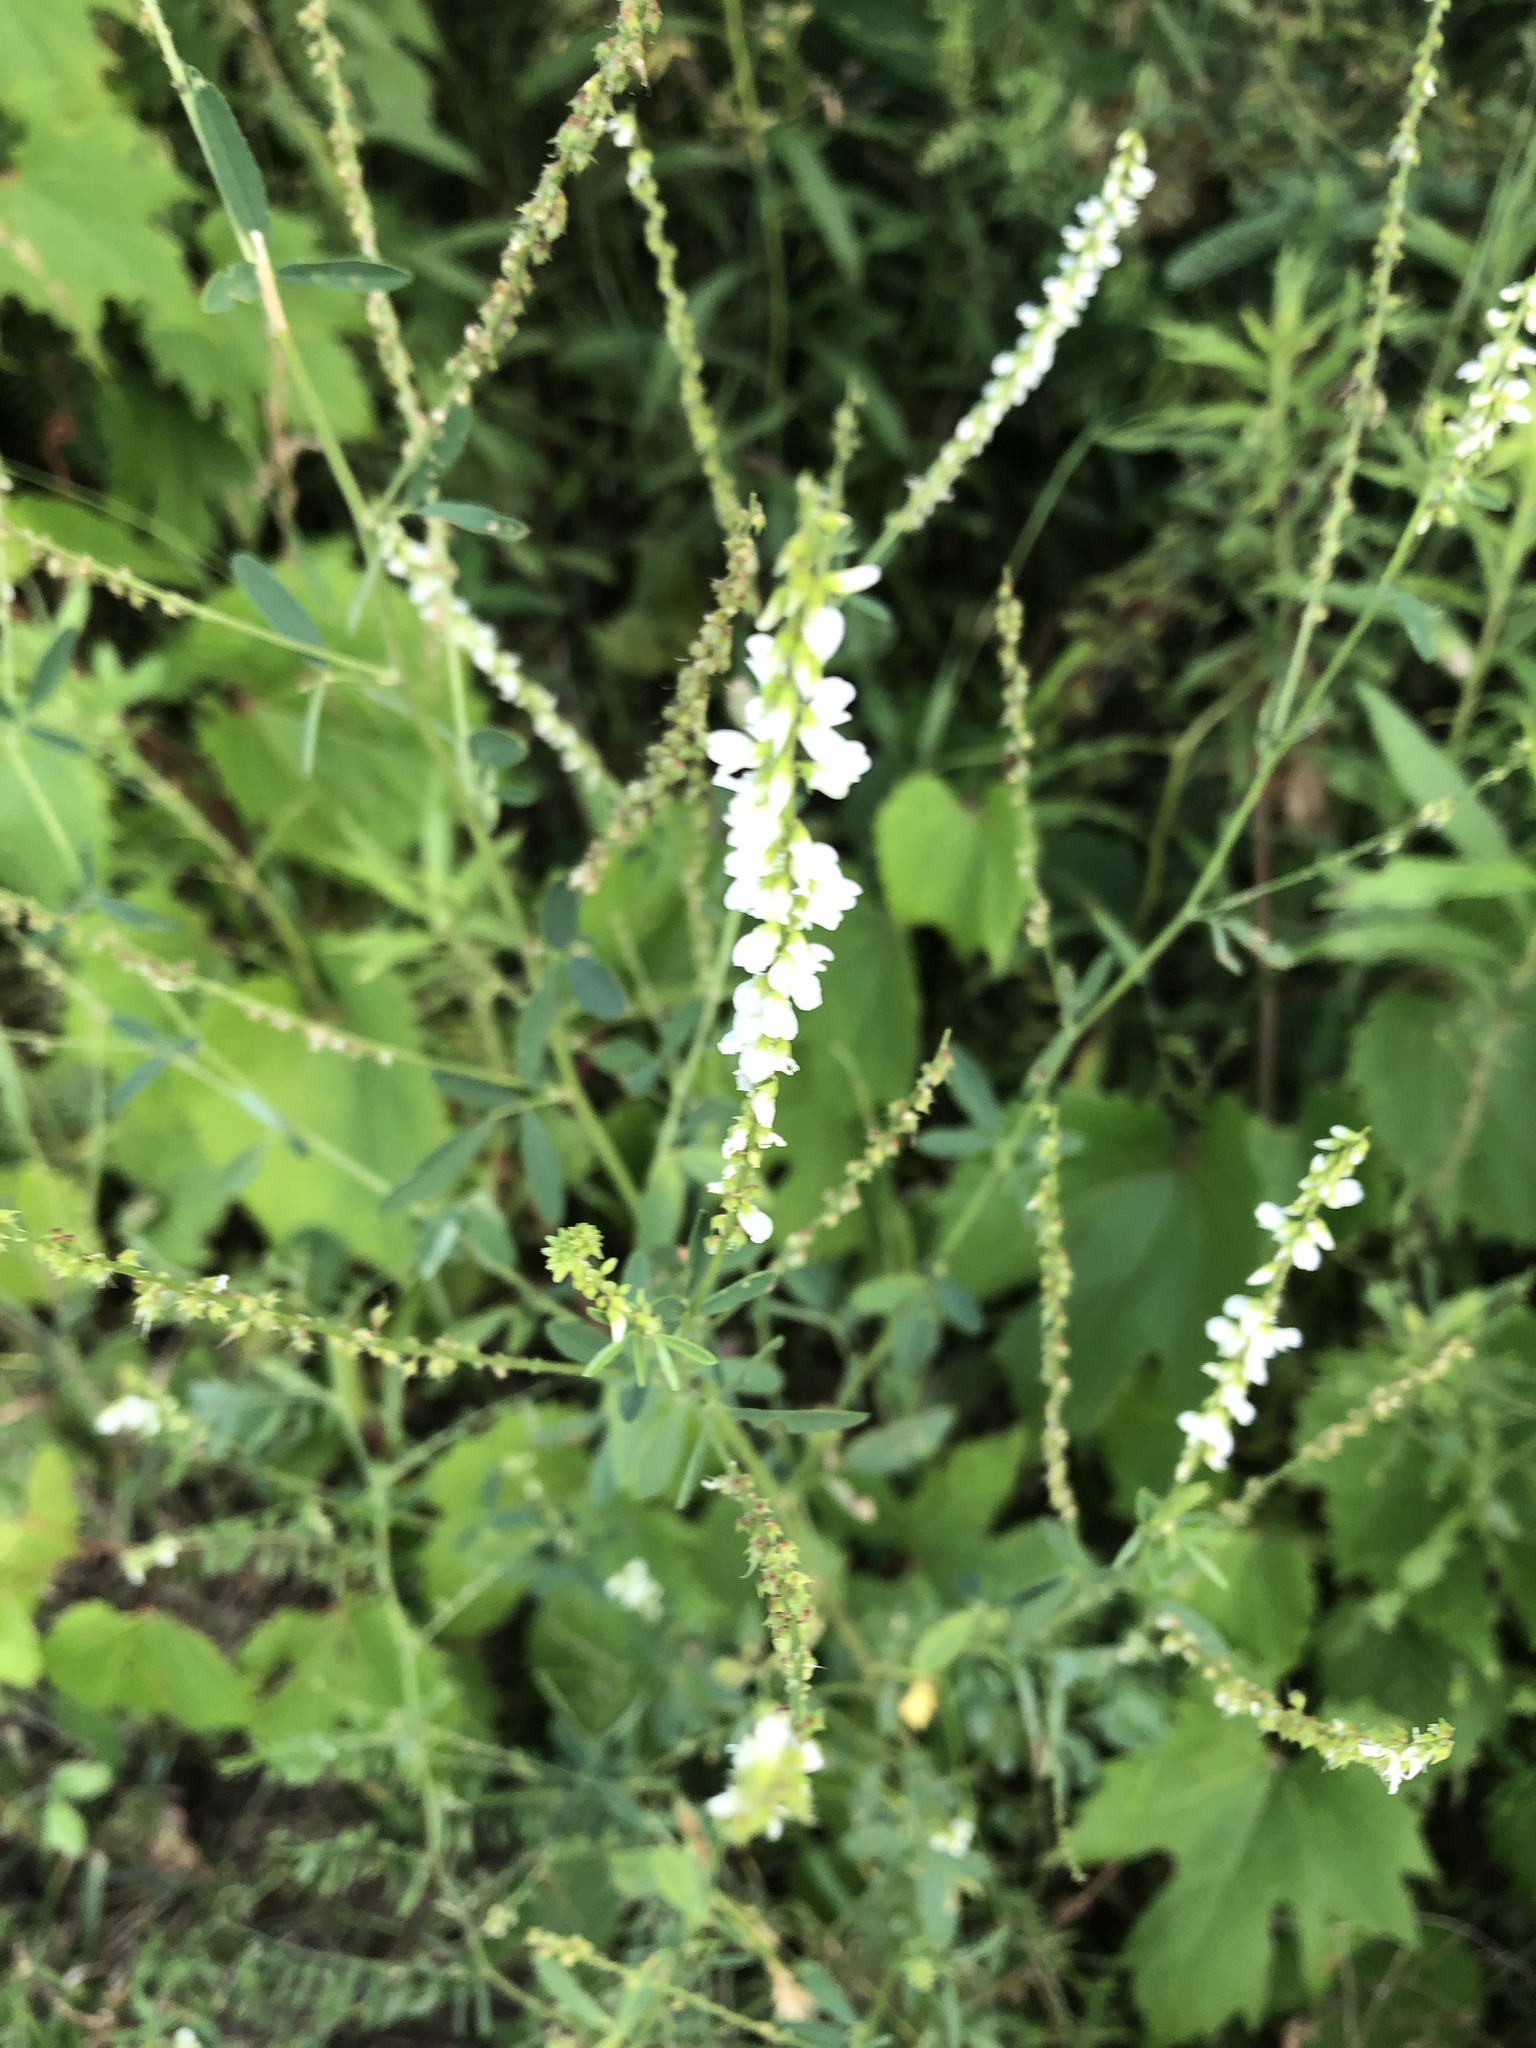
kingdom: Plantae
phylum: Tracheophyta
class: Magnoliopsida
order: Fabales
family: Fabaceae
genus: Melilotus
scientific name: Melilotus albus
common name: White melilot
